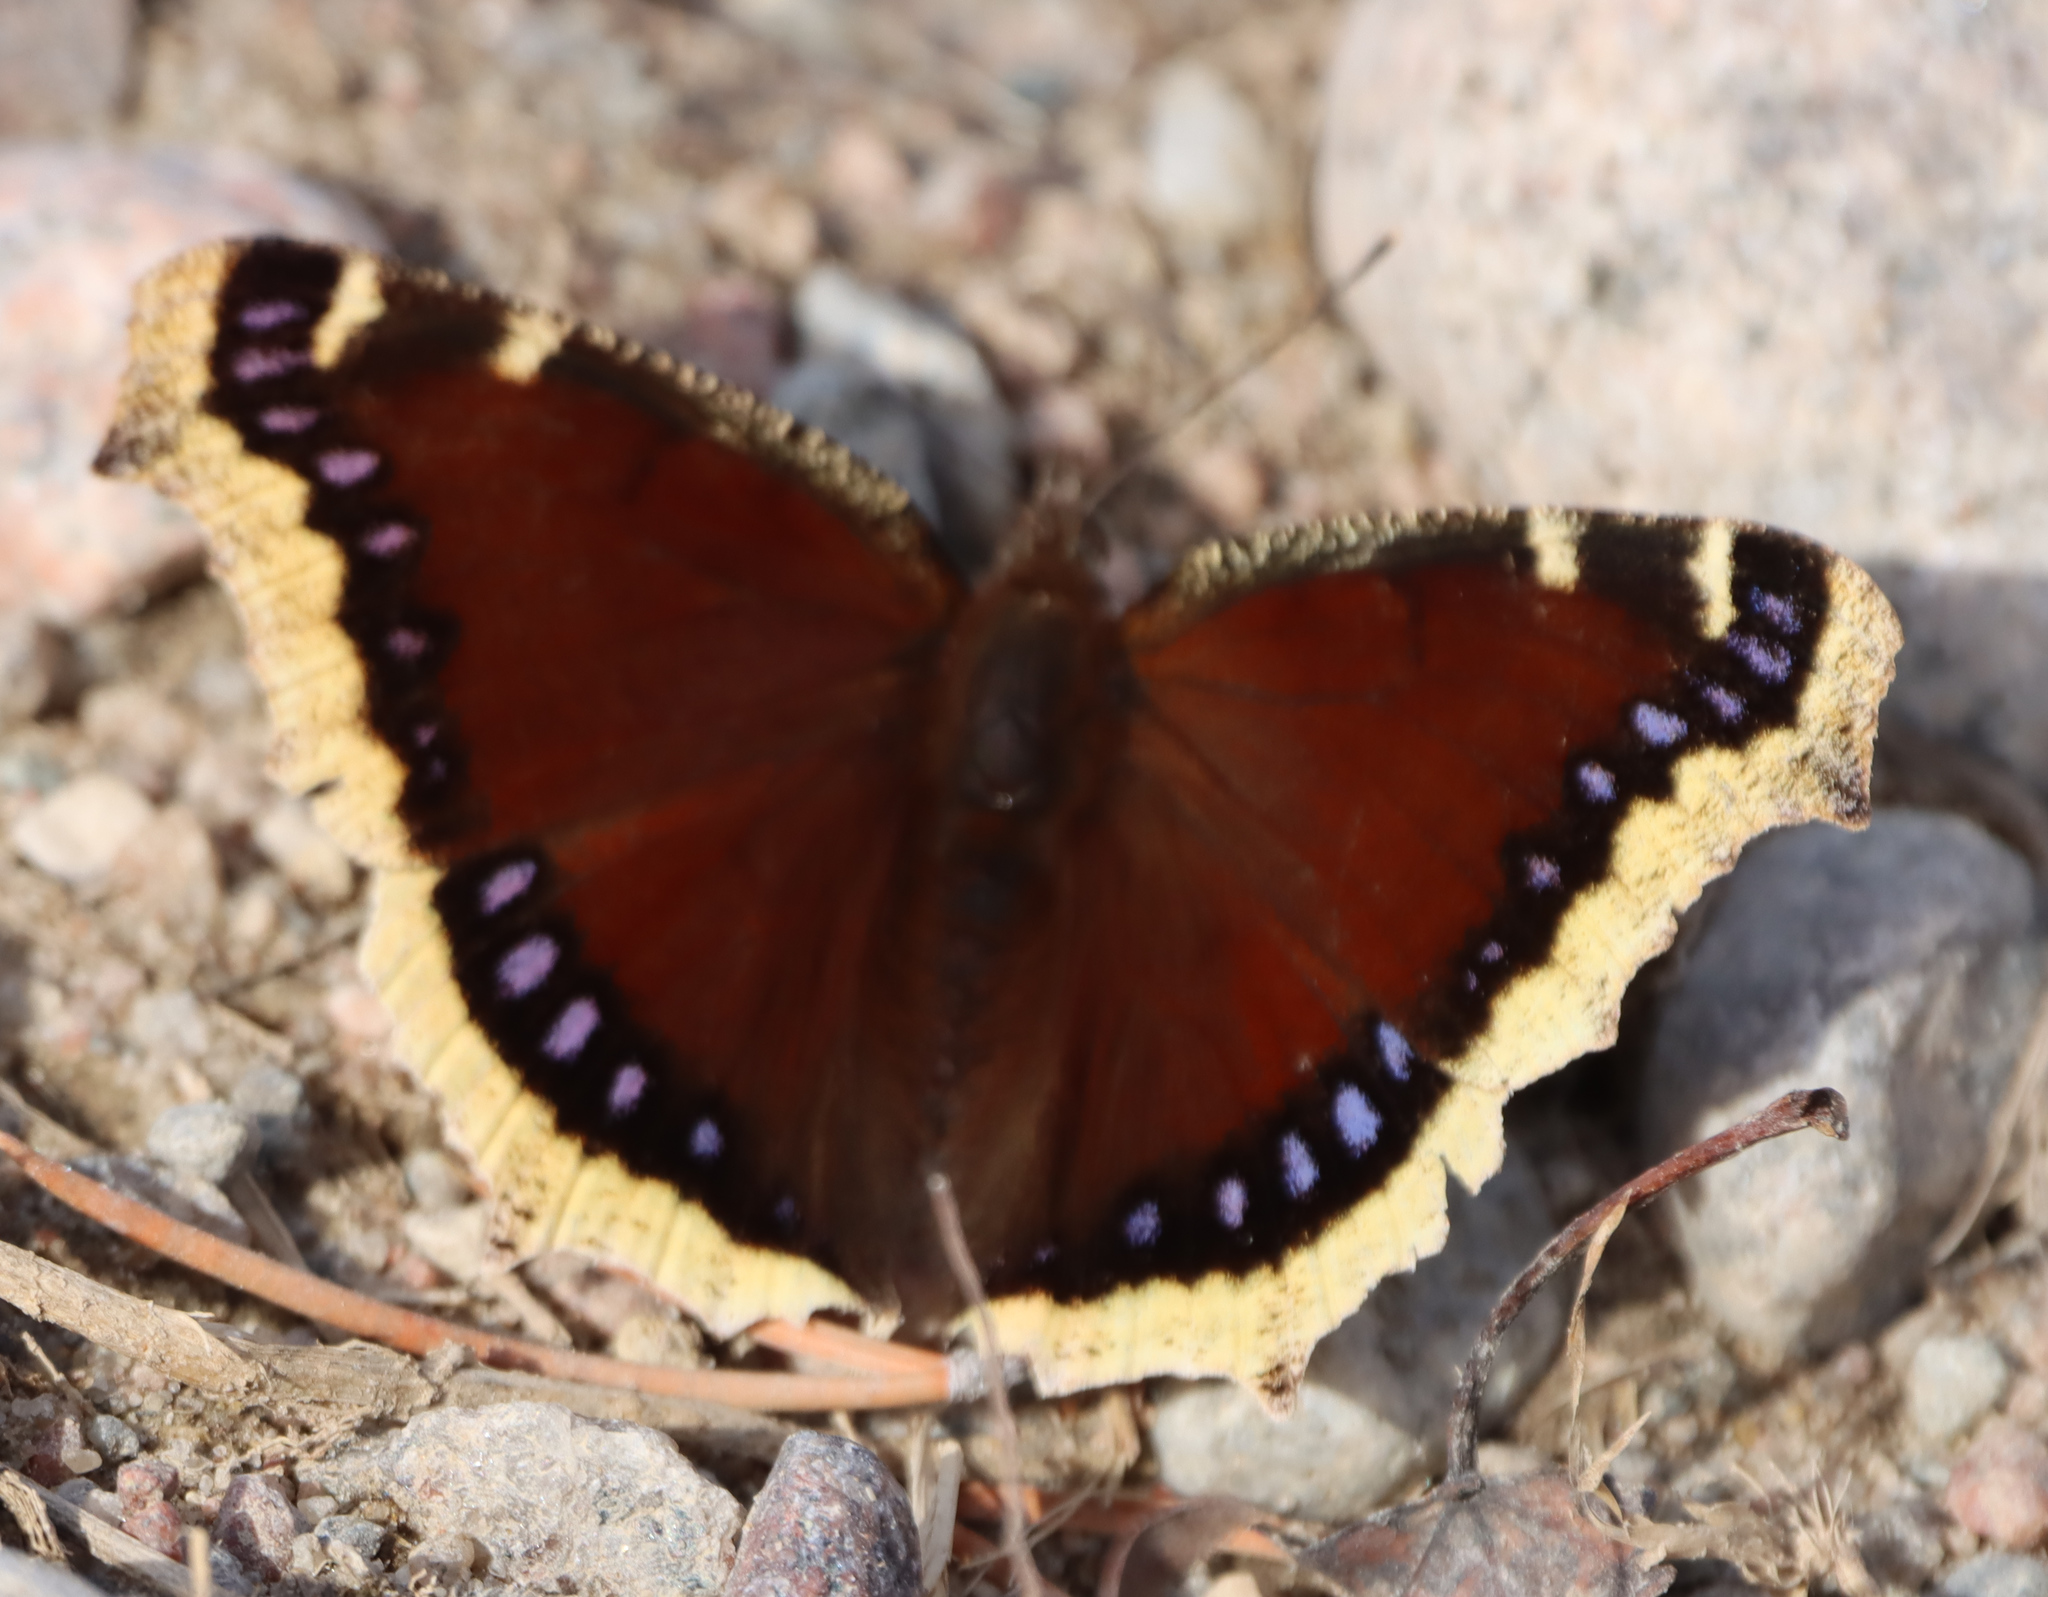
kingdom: Animalia
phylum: Arthropoda
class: Insecta
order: Lepidoptera
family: Nymphalidae
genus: Nymphalis
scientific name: Nymphalis antiopa
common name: Camberwell beauty
